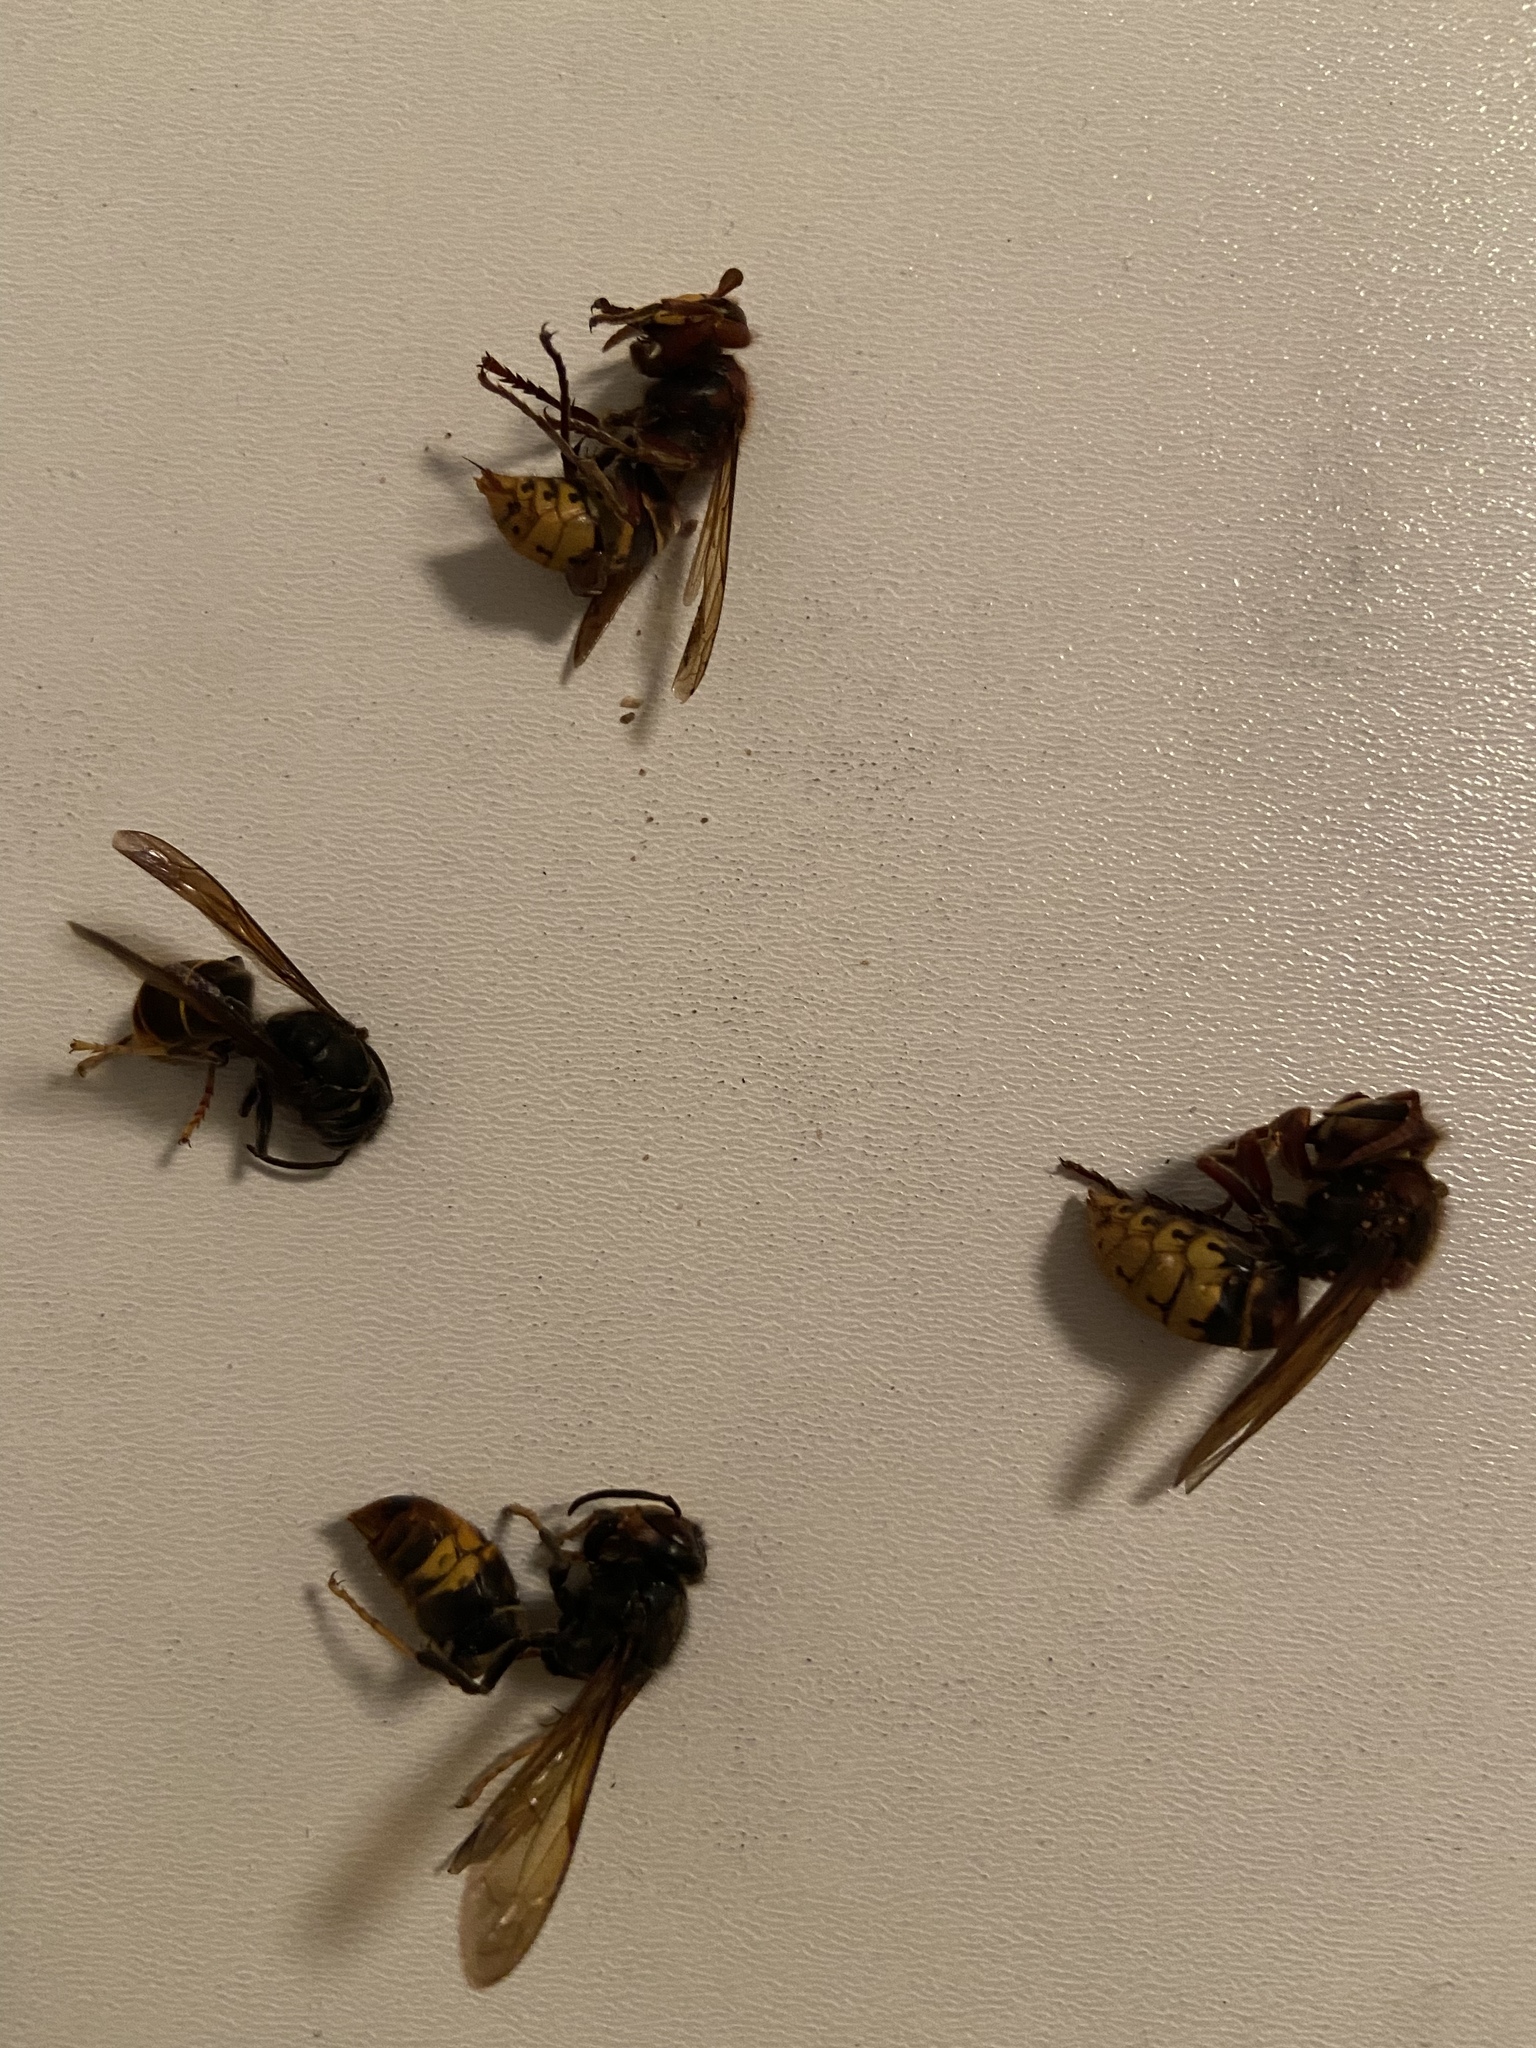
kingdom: Animalia
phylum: Arthropoda
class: Insecta
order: Hymenoptera
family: Vespidae
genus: Vespa
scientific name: Vespa velutina
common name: Asian hornet
